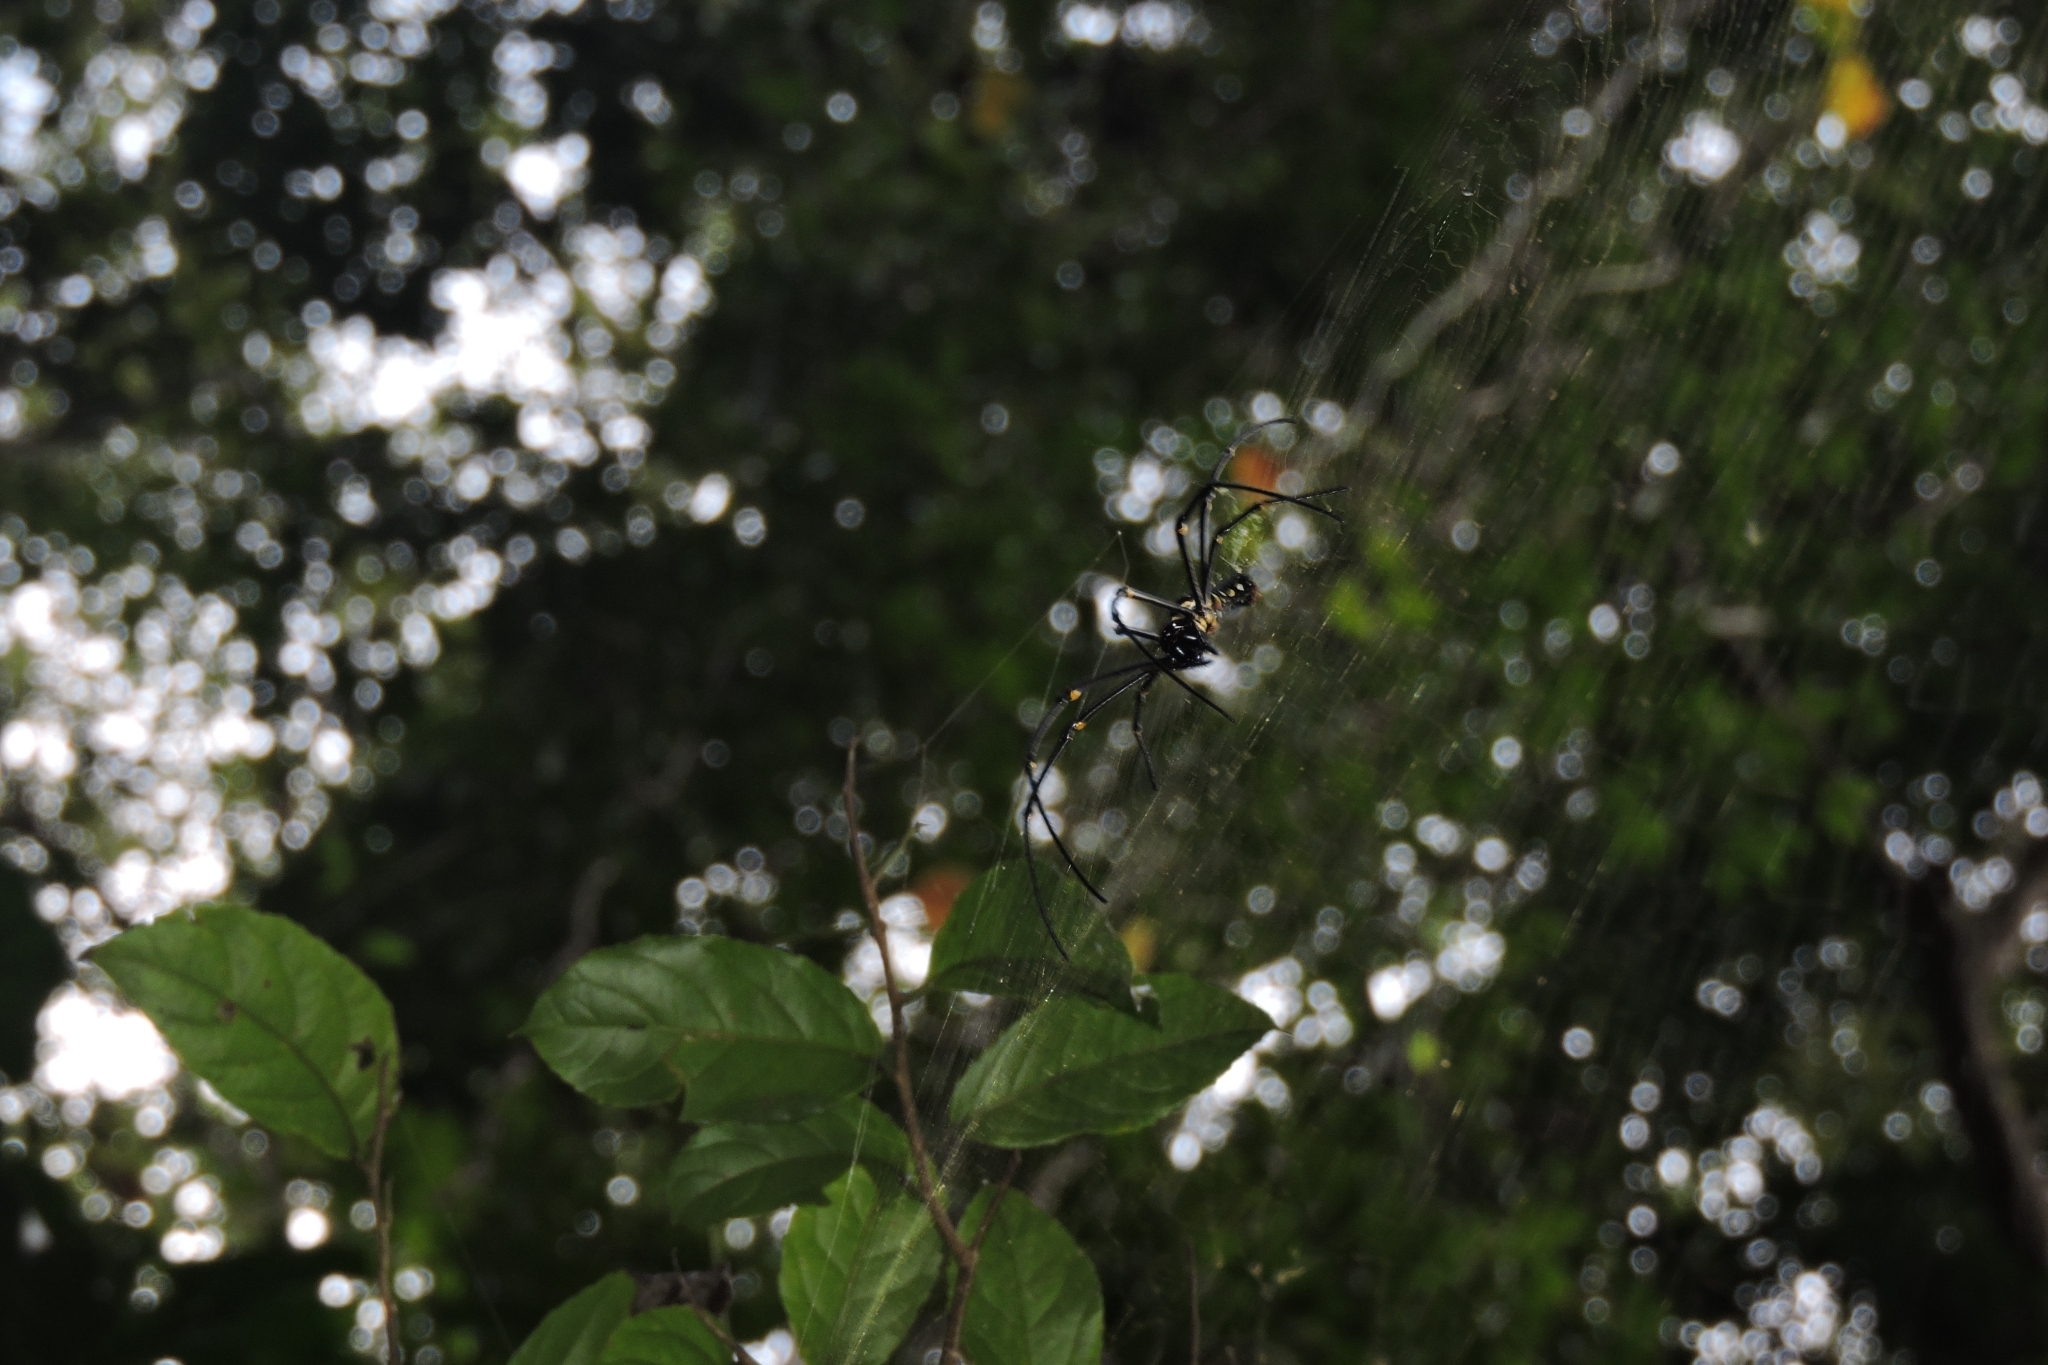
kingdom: Animalia
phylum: Arthropoda
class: Arachnida
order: Araneae
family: Araneidae
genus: Nephila
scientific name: Nephila pilipes
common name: Giant golden orb weaver
